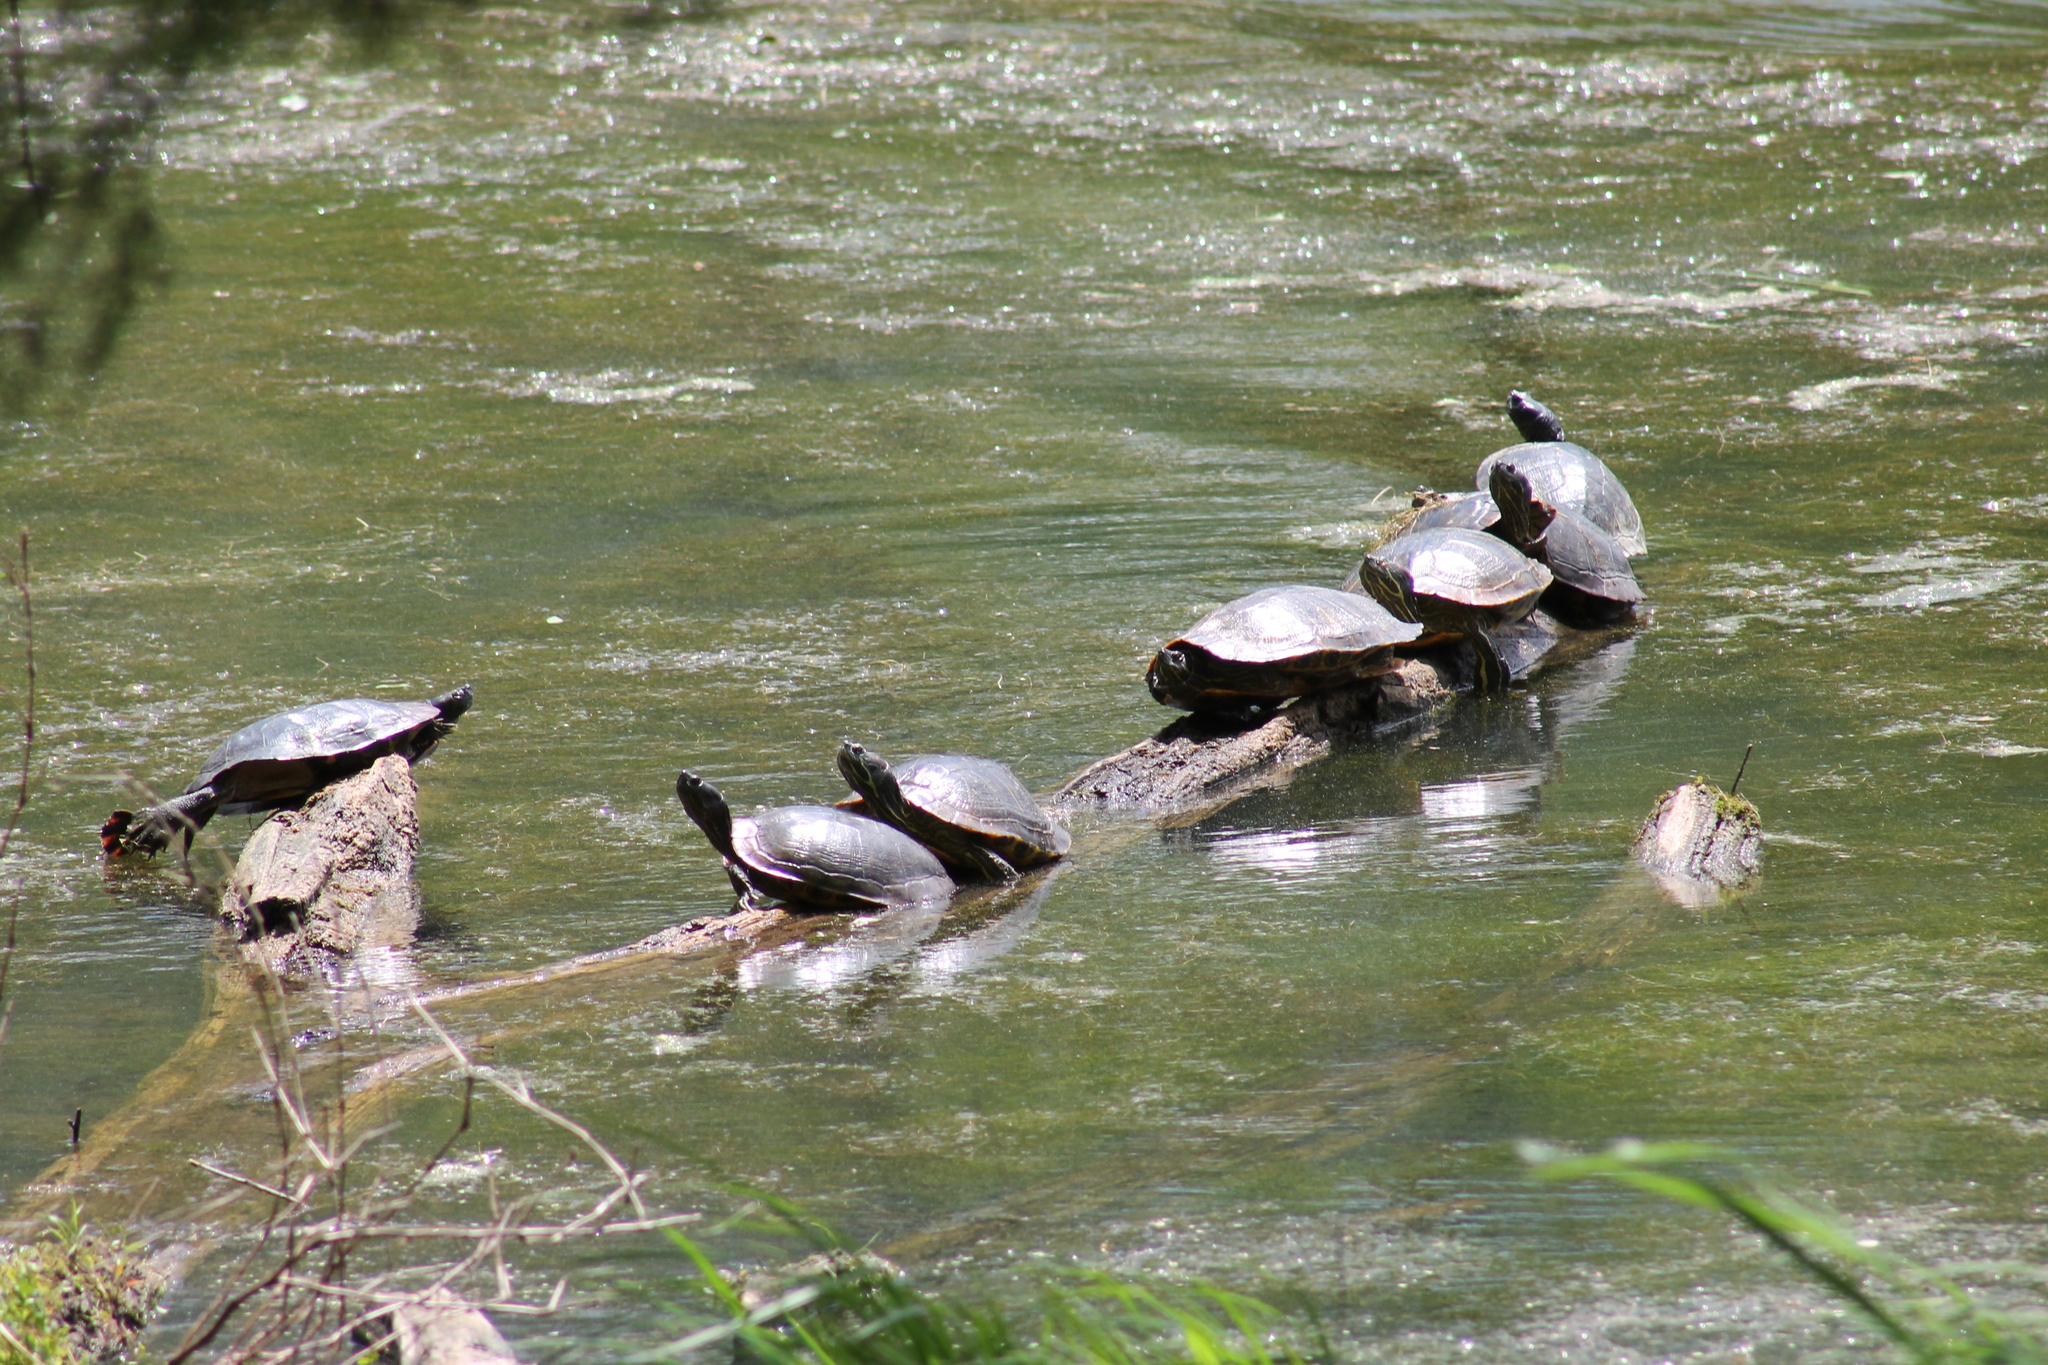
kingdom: Animalia
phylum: Chordata
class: Testudines
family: Emydidae
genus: Trachemys
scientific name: Trachemys scripta
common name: Slider
